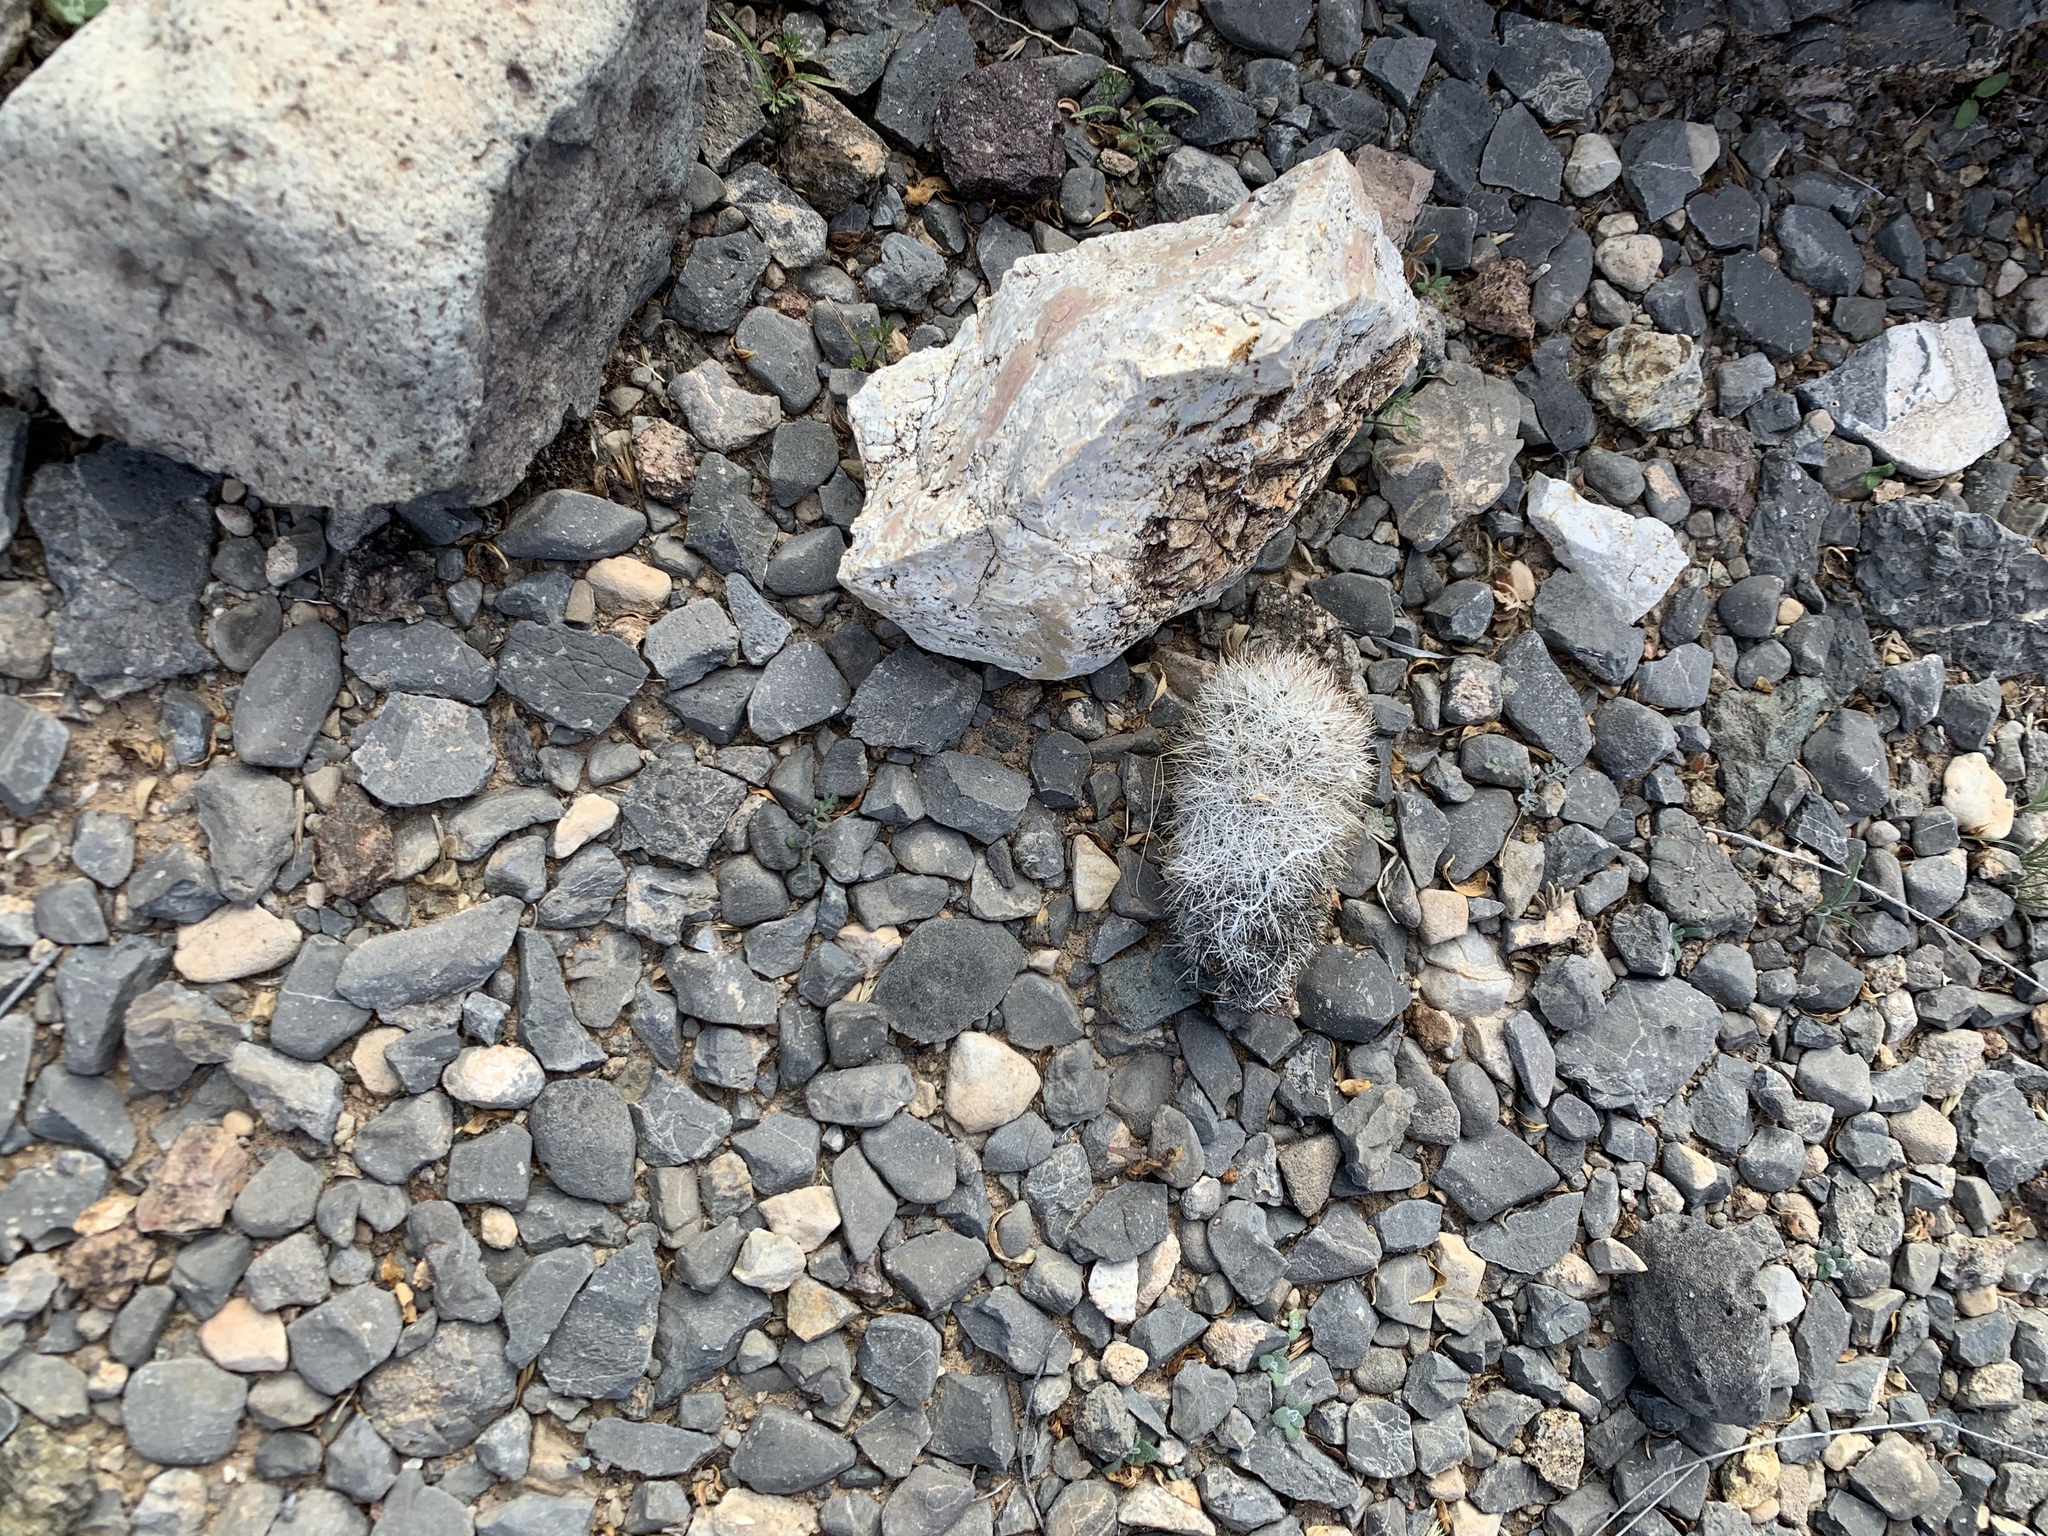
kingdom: Plantae
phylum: Tracheophyta
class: Magnoliopsida
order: Caryophyllales
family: Cactaceae
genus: Pelecyphora
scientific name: Pelecyphora sneedii
